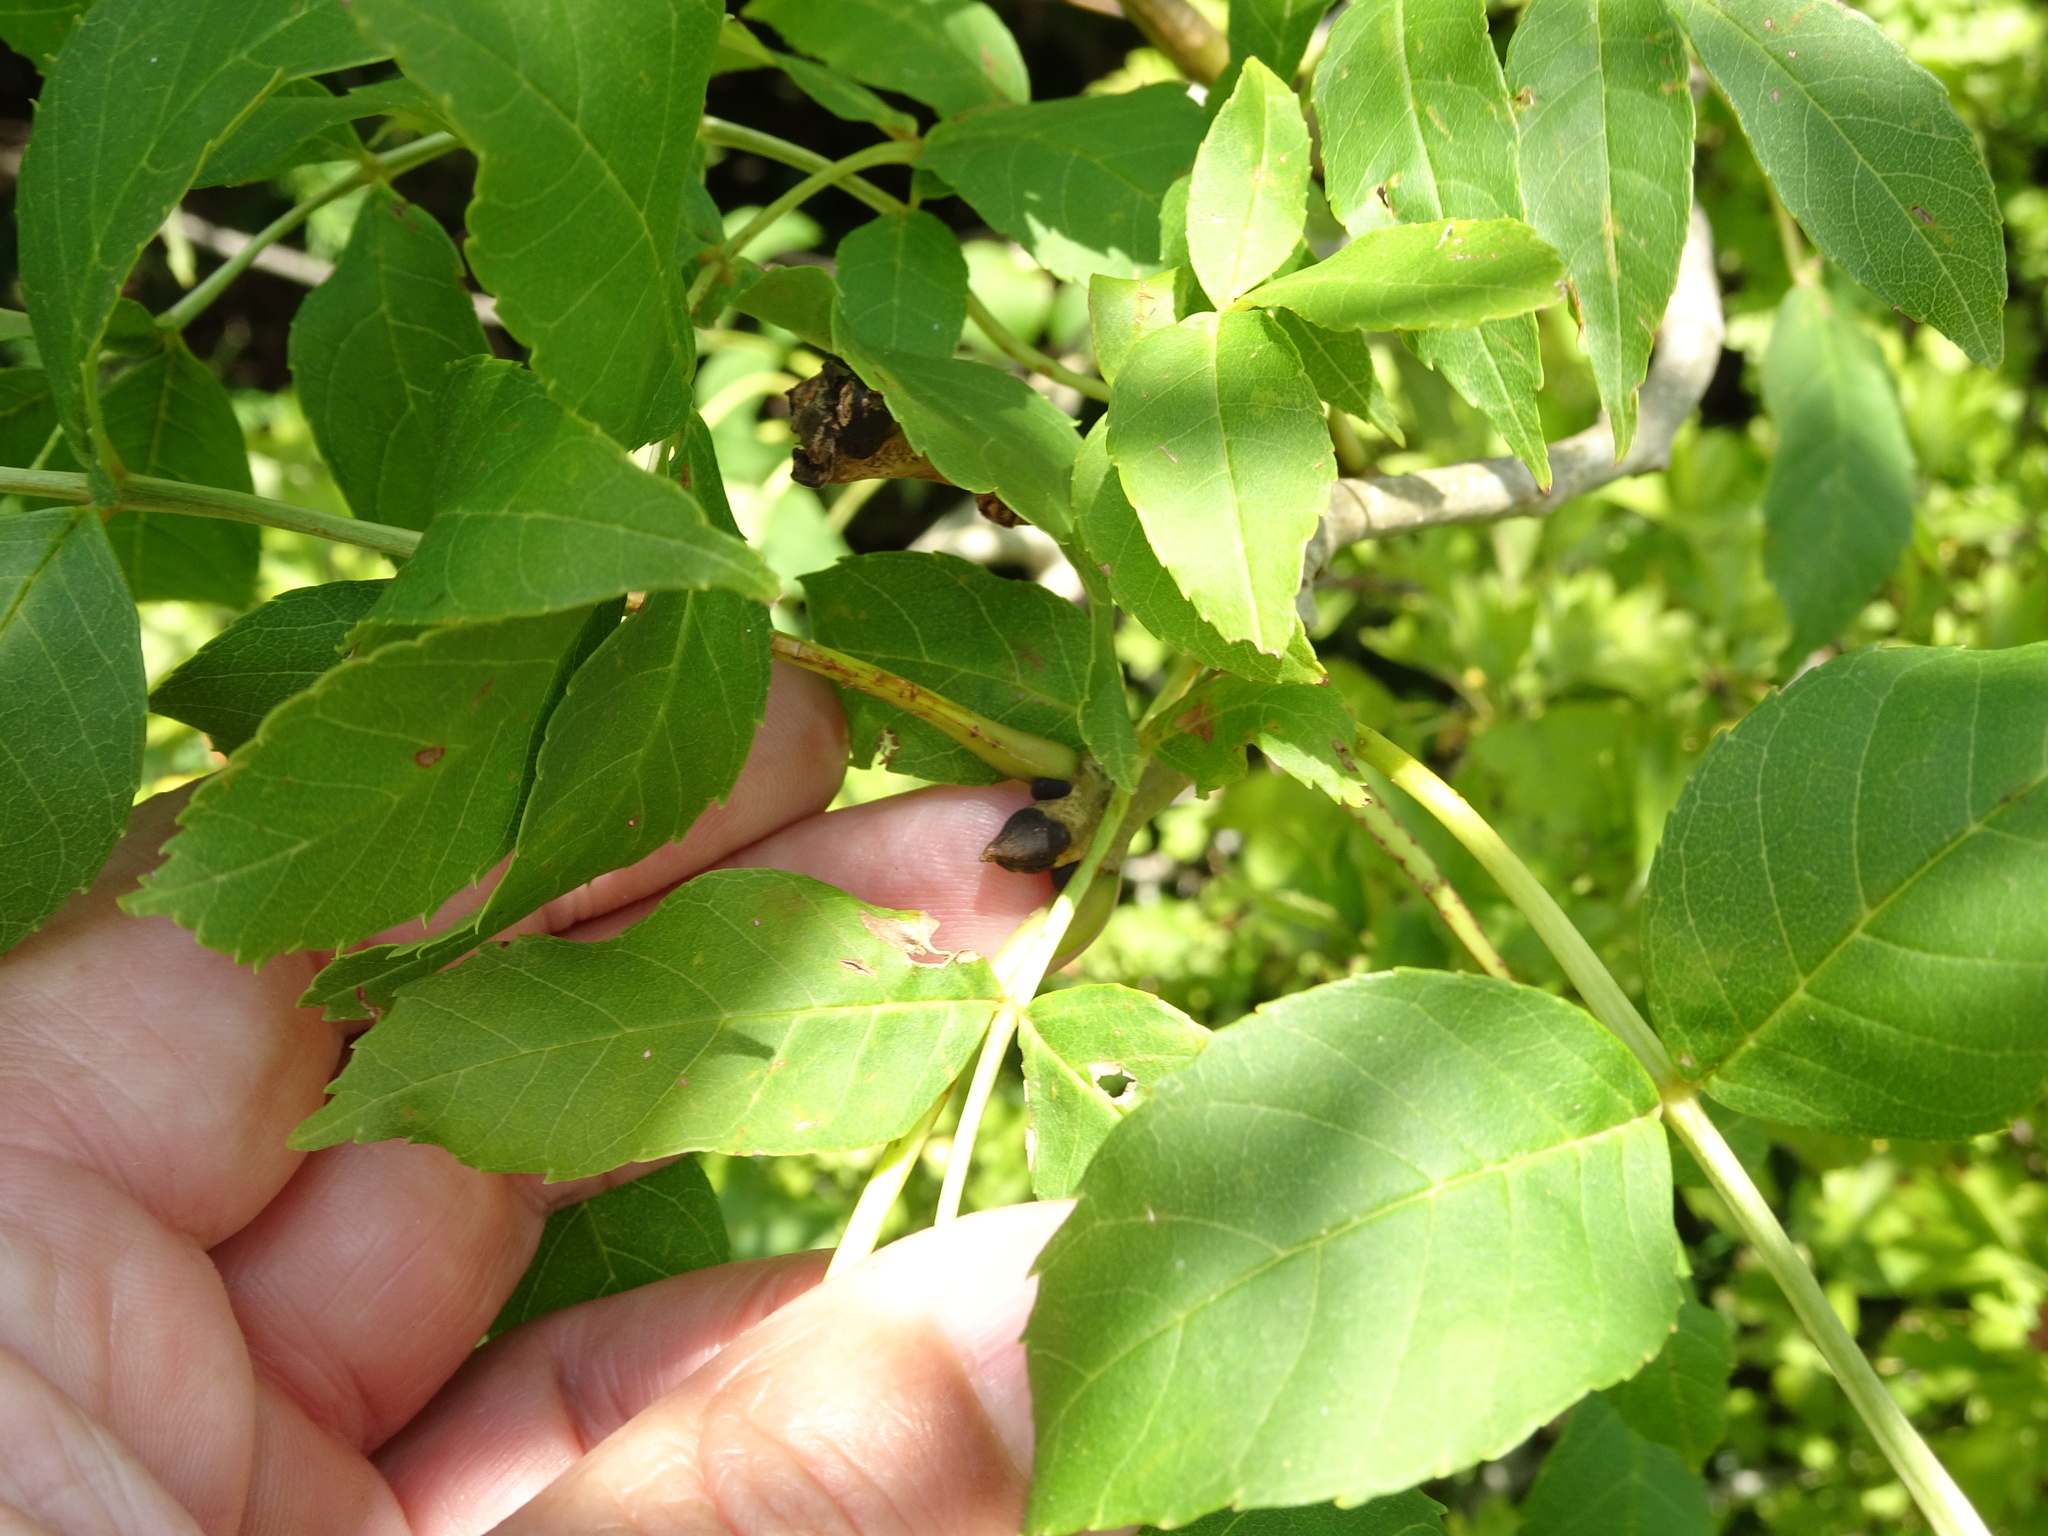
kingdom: Plantae
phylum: Tracheophyta
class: Magnoliopsida
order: Lamiales
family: Oleaceae
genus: Fraxinus
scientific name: Fraxinus excelsior
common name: European ash
